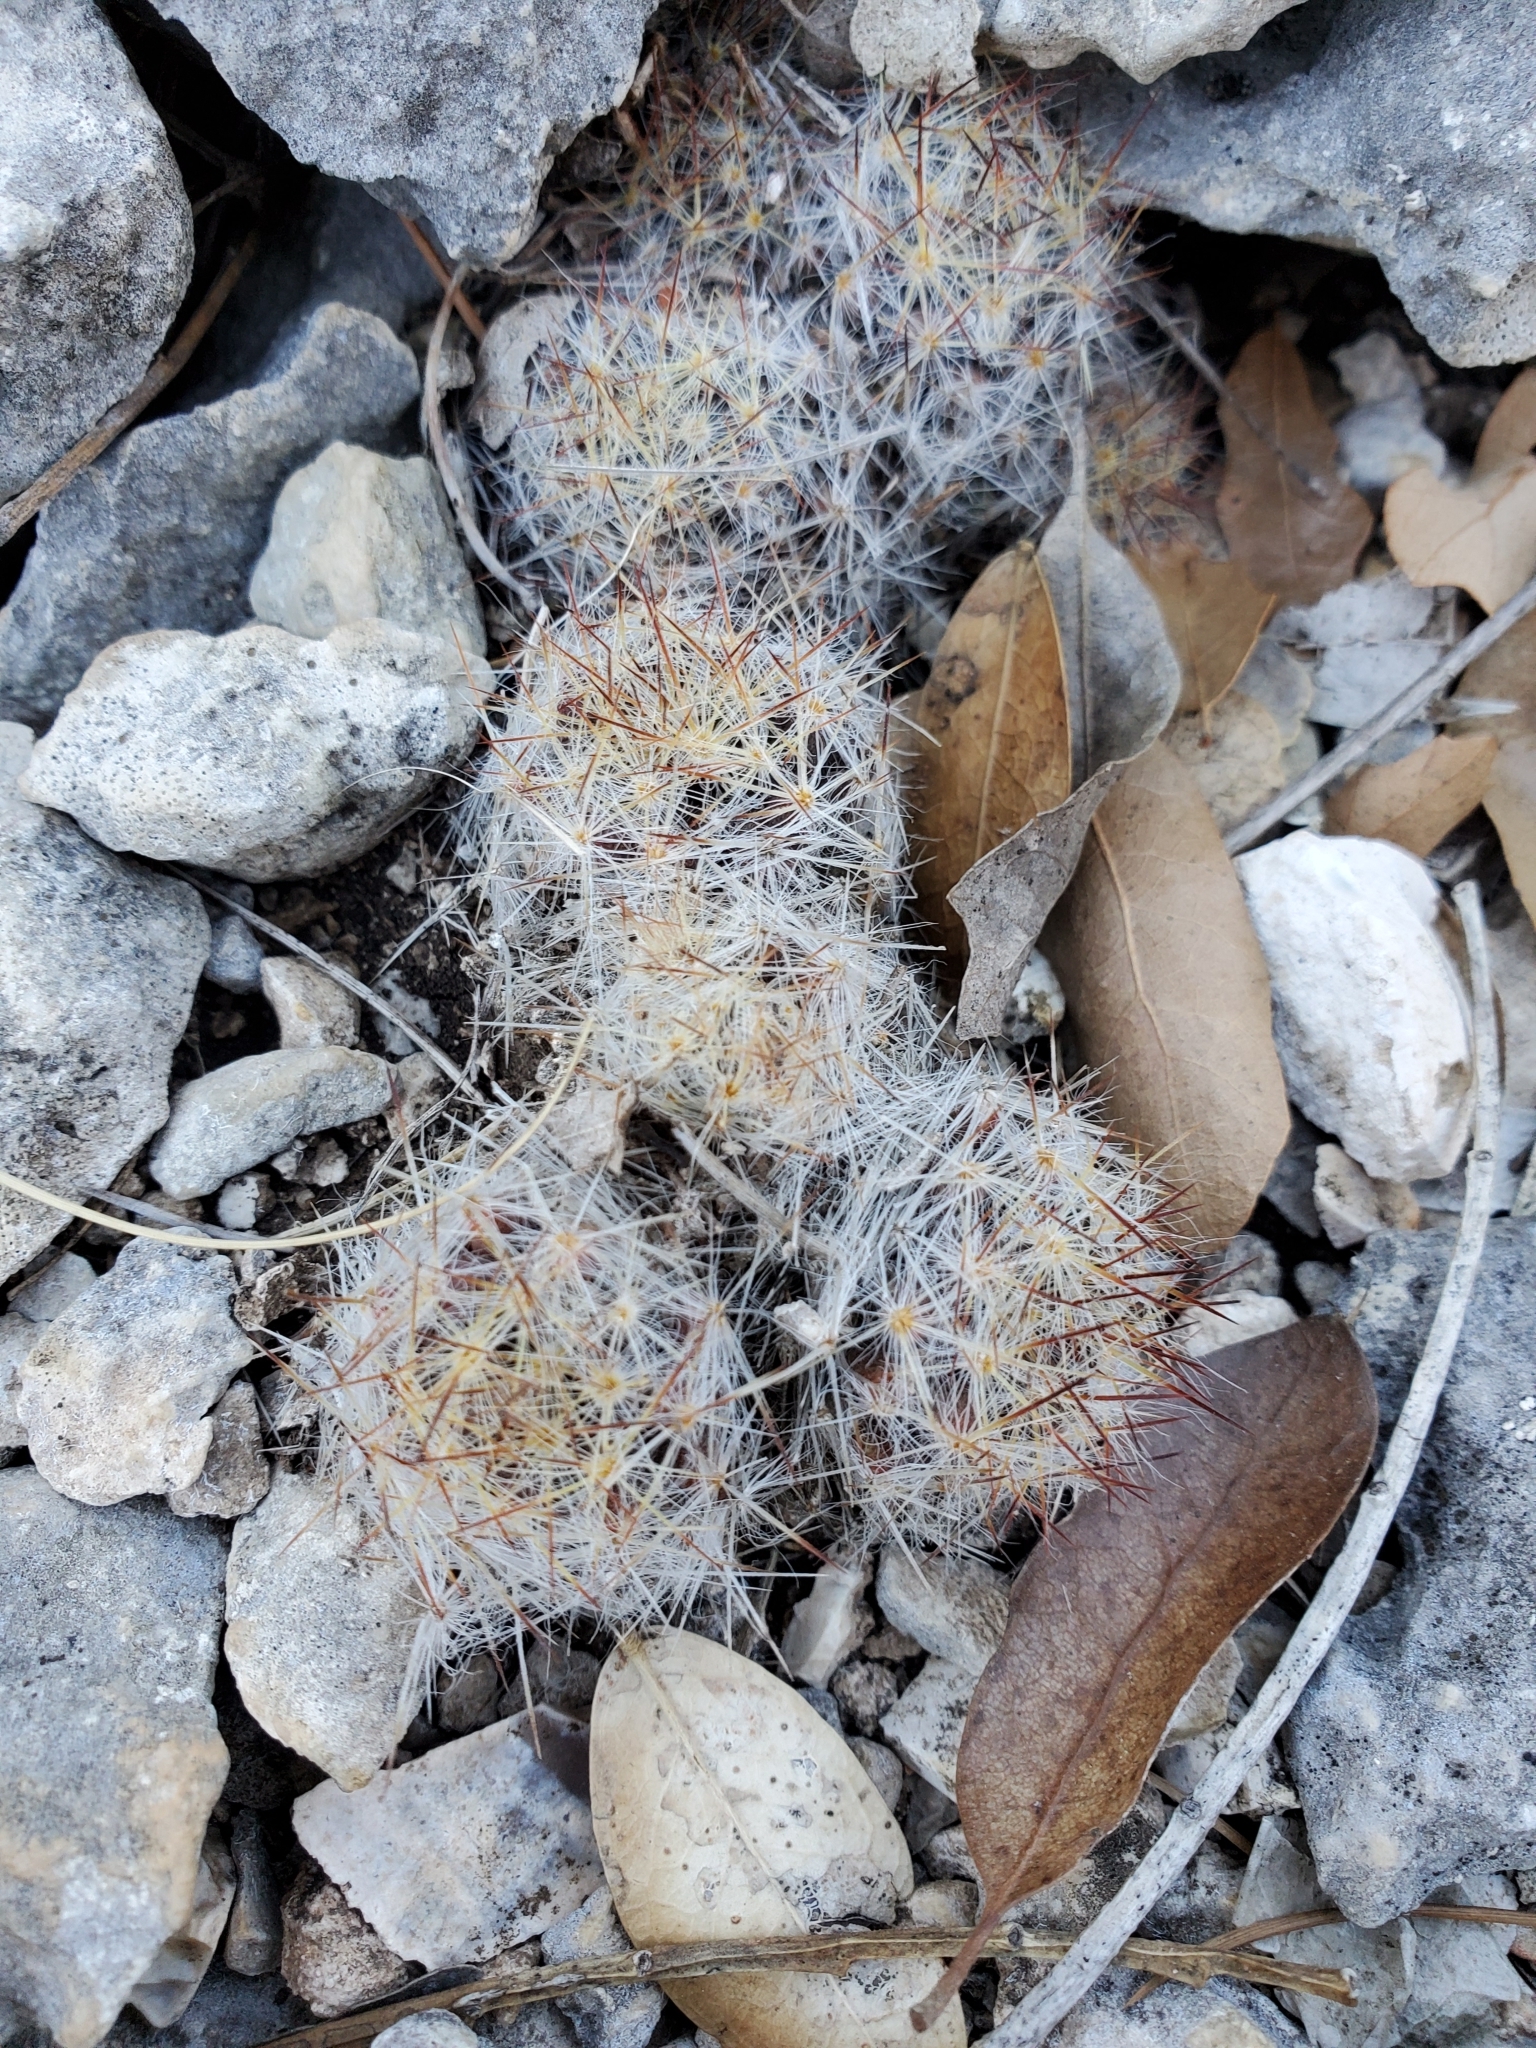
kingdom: Plantae
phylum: Tracheophyta
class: Magnoliopsida
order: Caryophyllales
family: Cactaceae
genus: Mammillaria
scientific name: Mammillaria prolifera
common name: Texas nipple cactus
